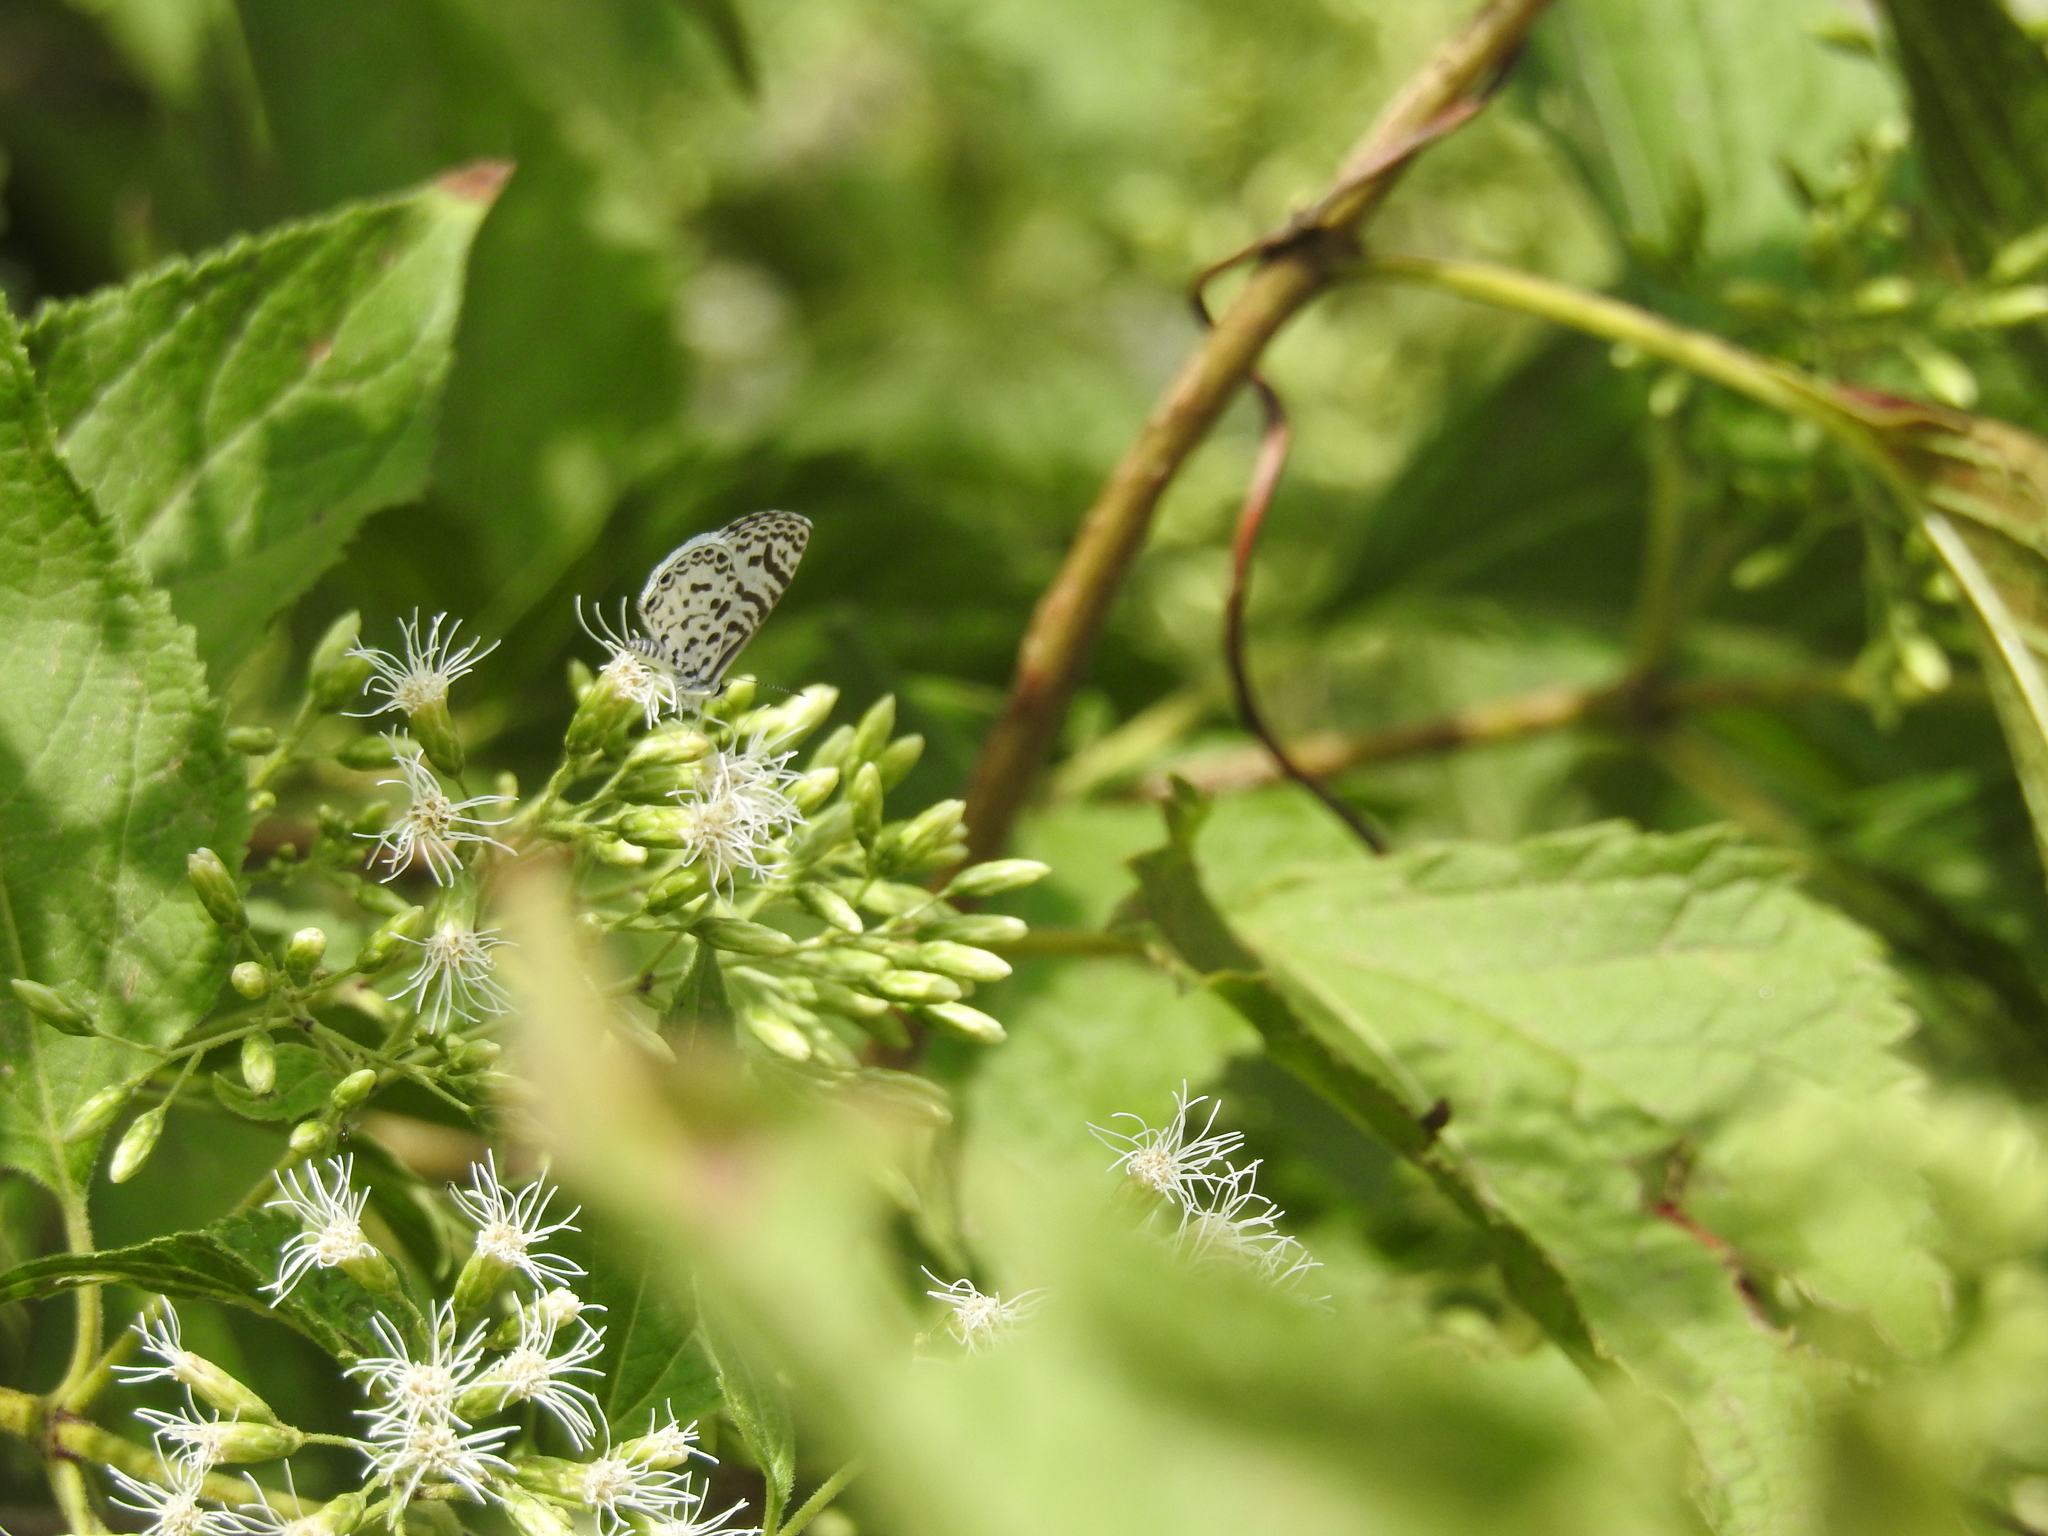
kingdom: Animalia
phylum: Arthropoda
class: Insecta
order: Lepidoptera
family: Lycaenidae
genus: Leptotes
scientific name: Leptotes cassius
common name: Cassius blue
